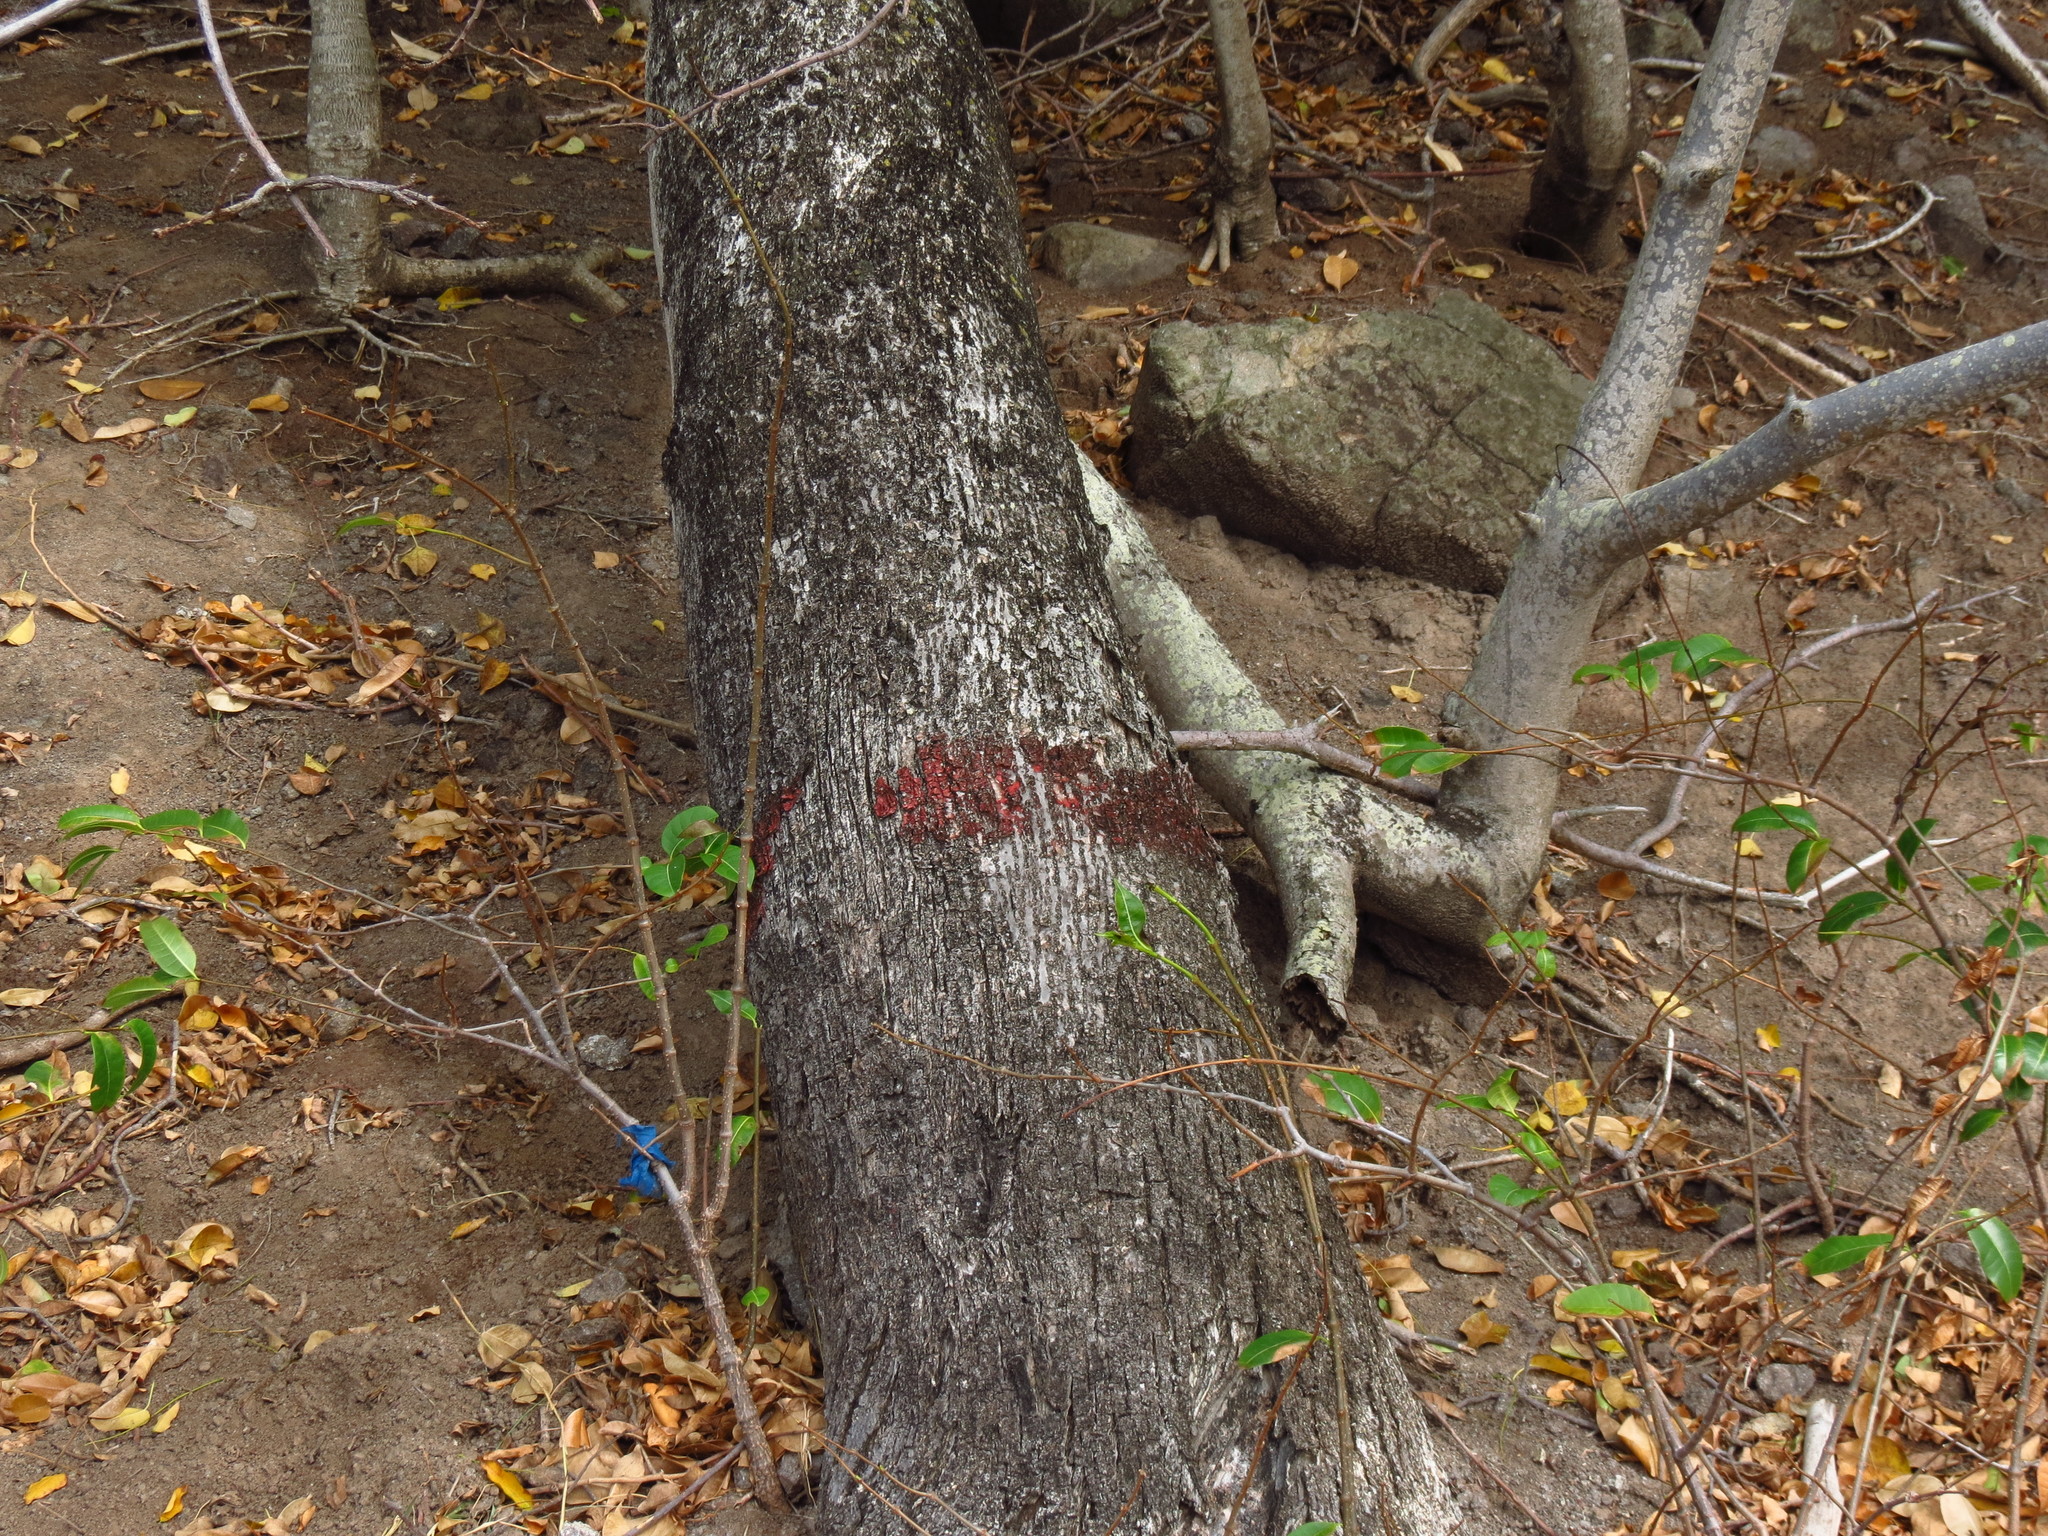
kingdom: Plantae
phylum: Tracheophyta
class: Magnoliopsida
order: Malpighiales
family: Euphorbiaceae
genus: Hippomane
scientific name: Hippomane mancinella
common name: Manchineel
